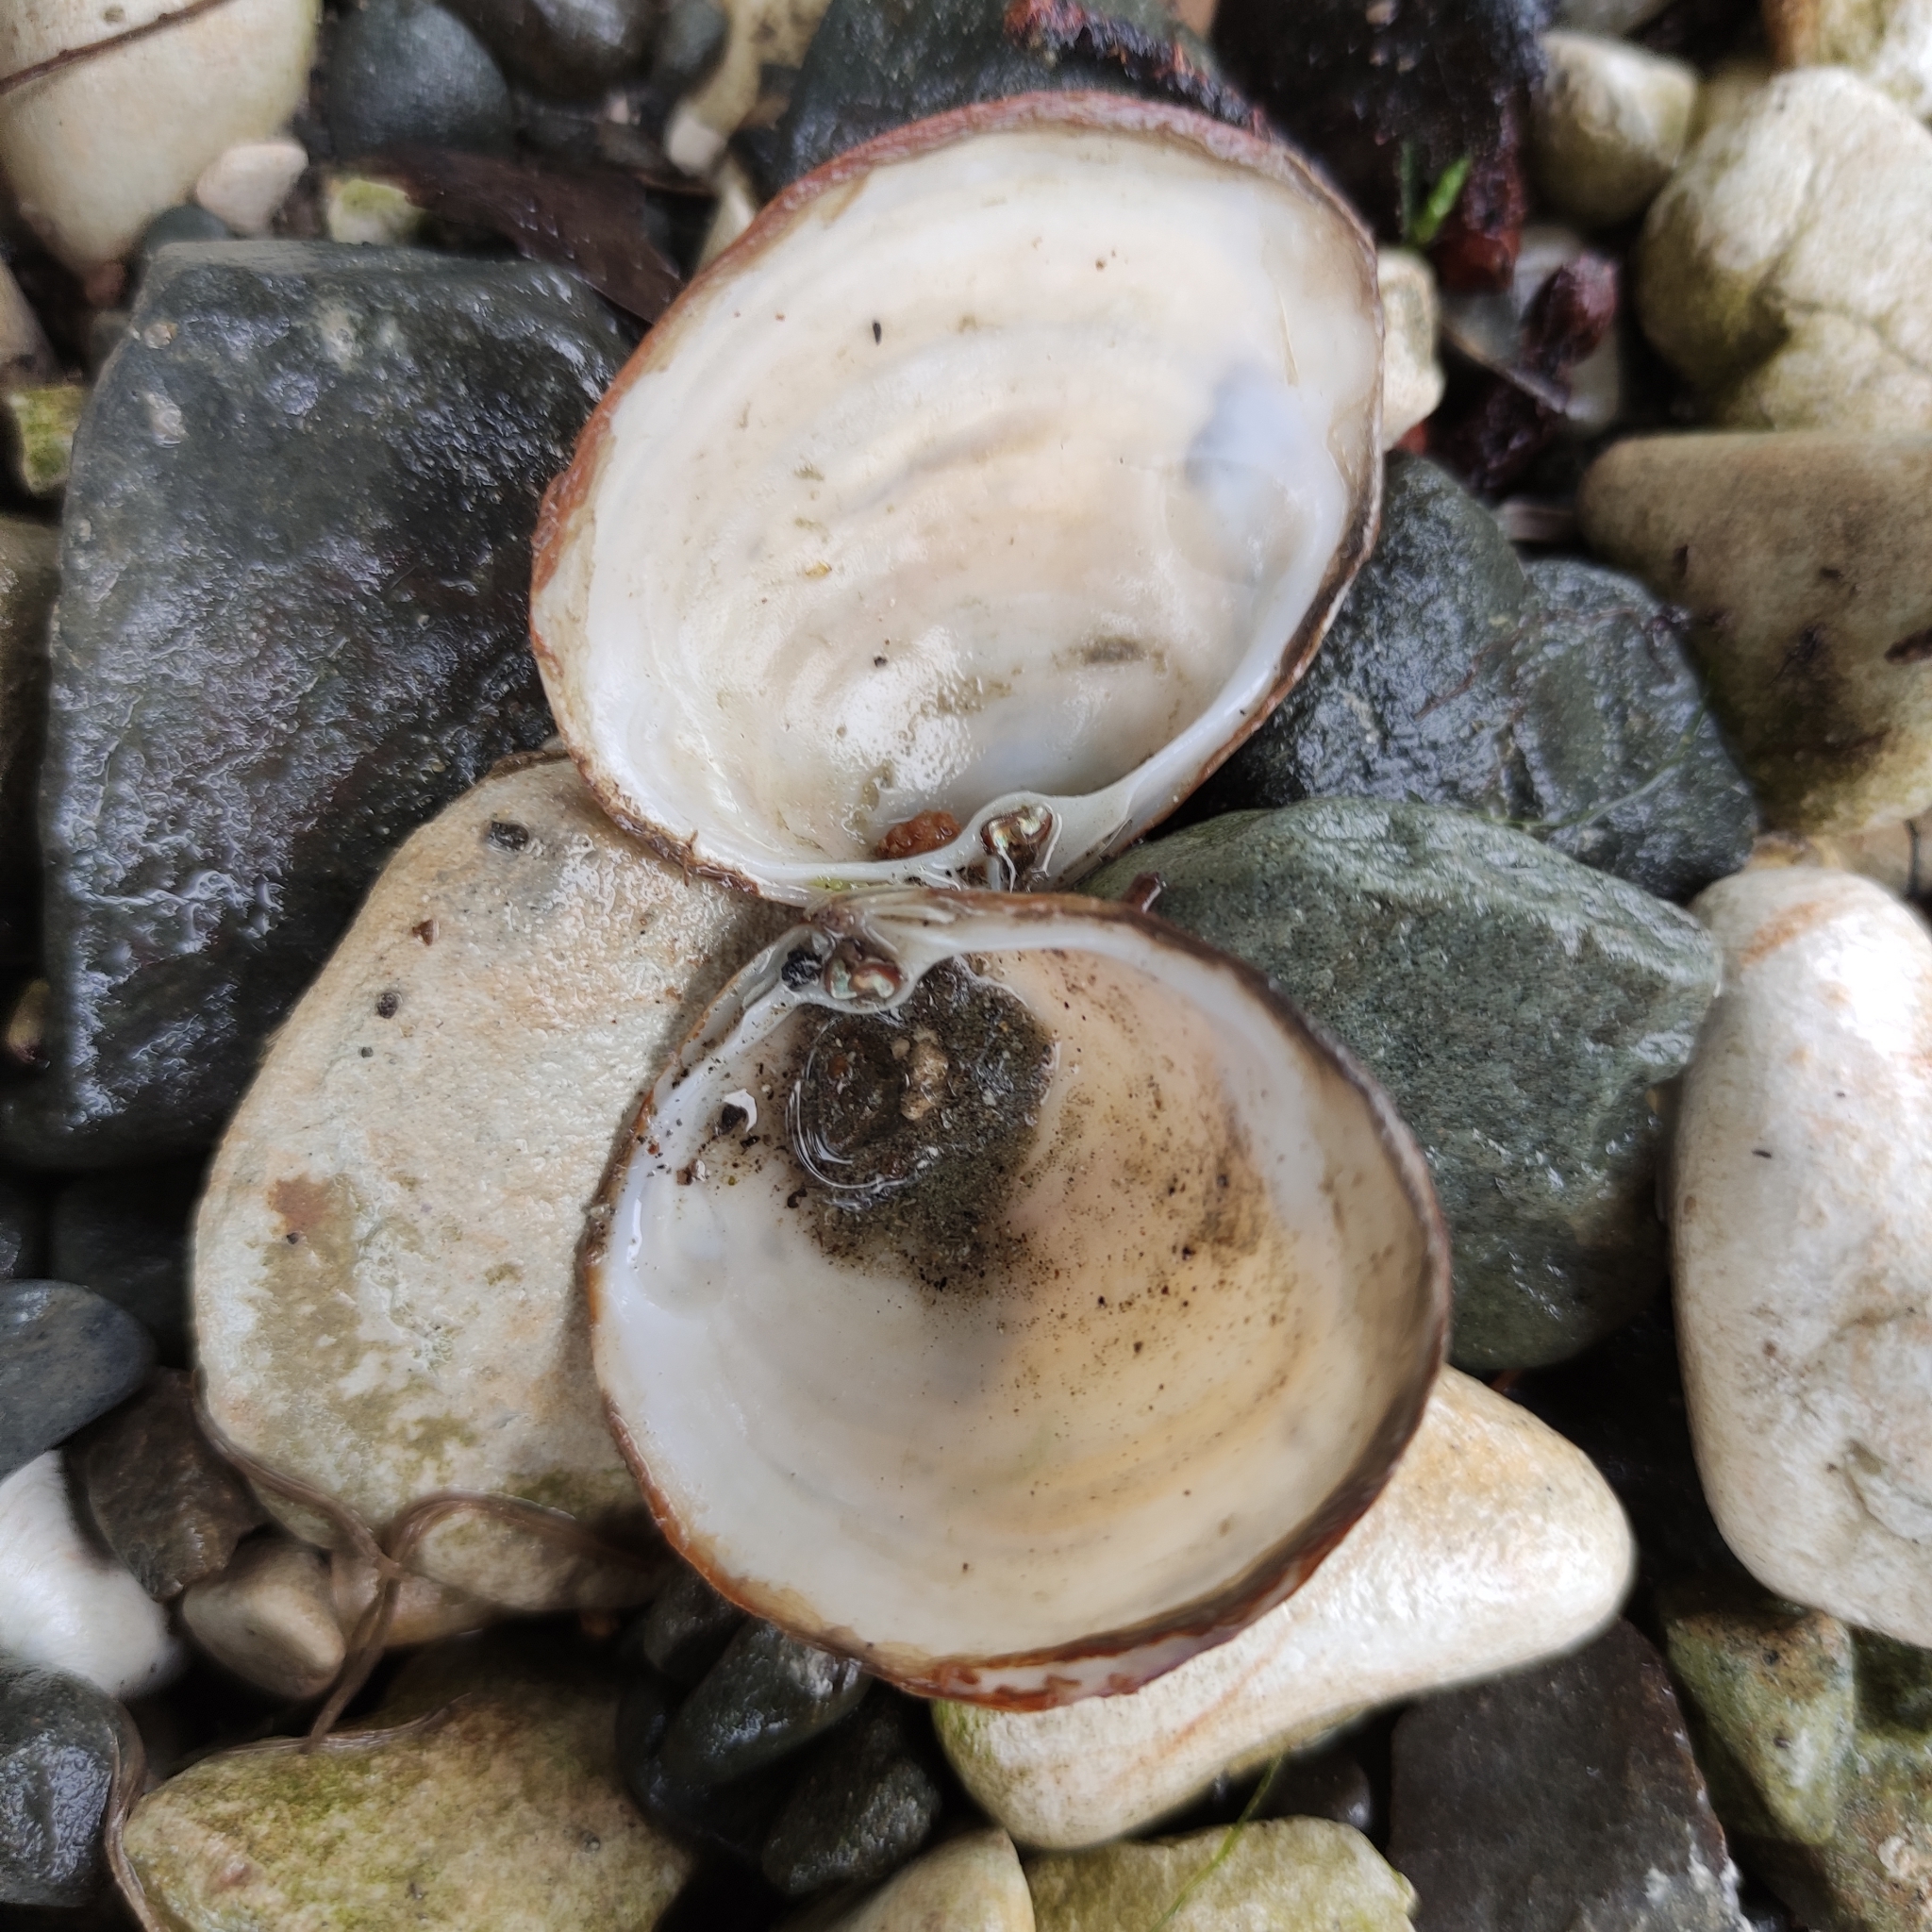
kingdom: Animalia
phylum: Mollusca
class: Bivalvia
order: Venerida
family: Mactridae
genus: Cyclomactra
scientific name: Cyclomactra ovata
